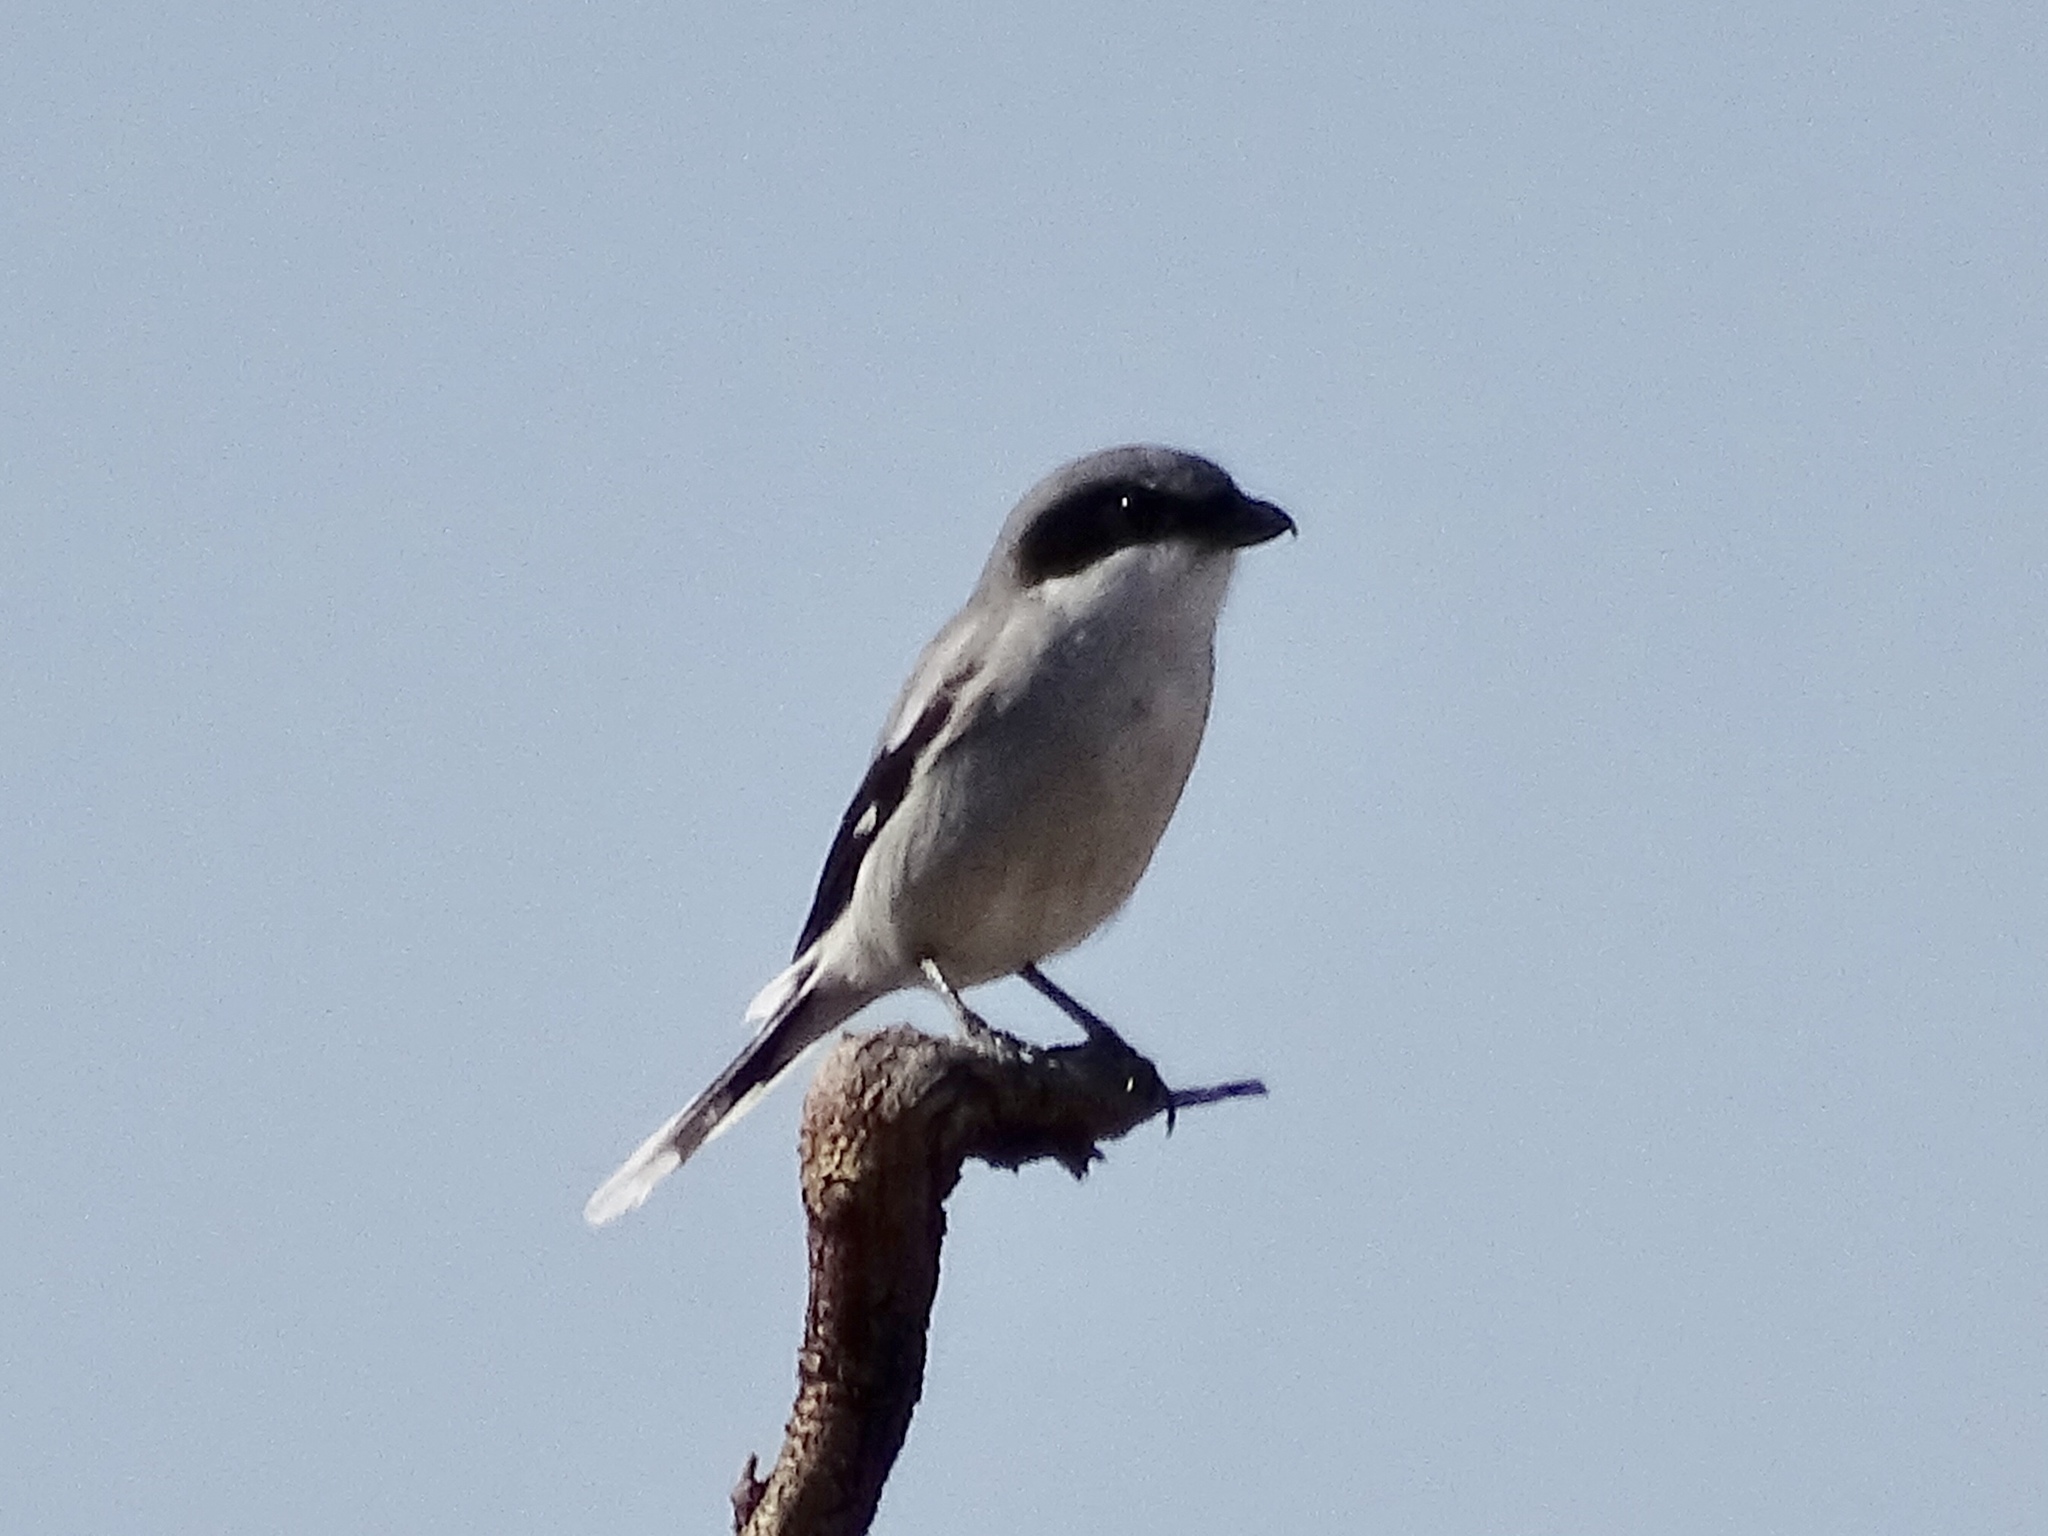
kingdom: Animalia
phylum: Chordata
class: Aves
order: Passeriformes
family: Laniidae
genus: Lanius
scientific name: Lanius ludovicianus
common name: Loggerhead shrike
